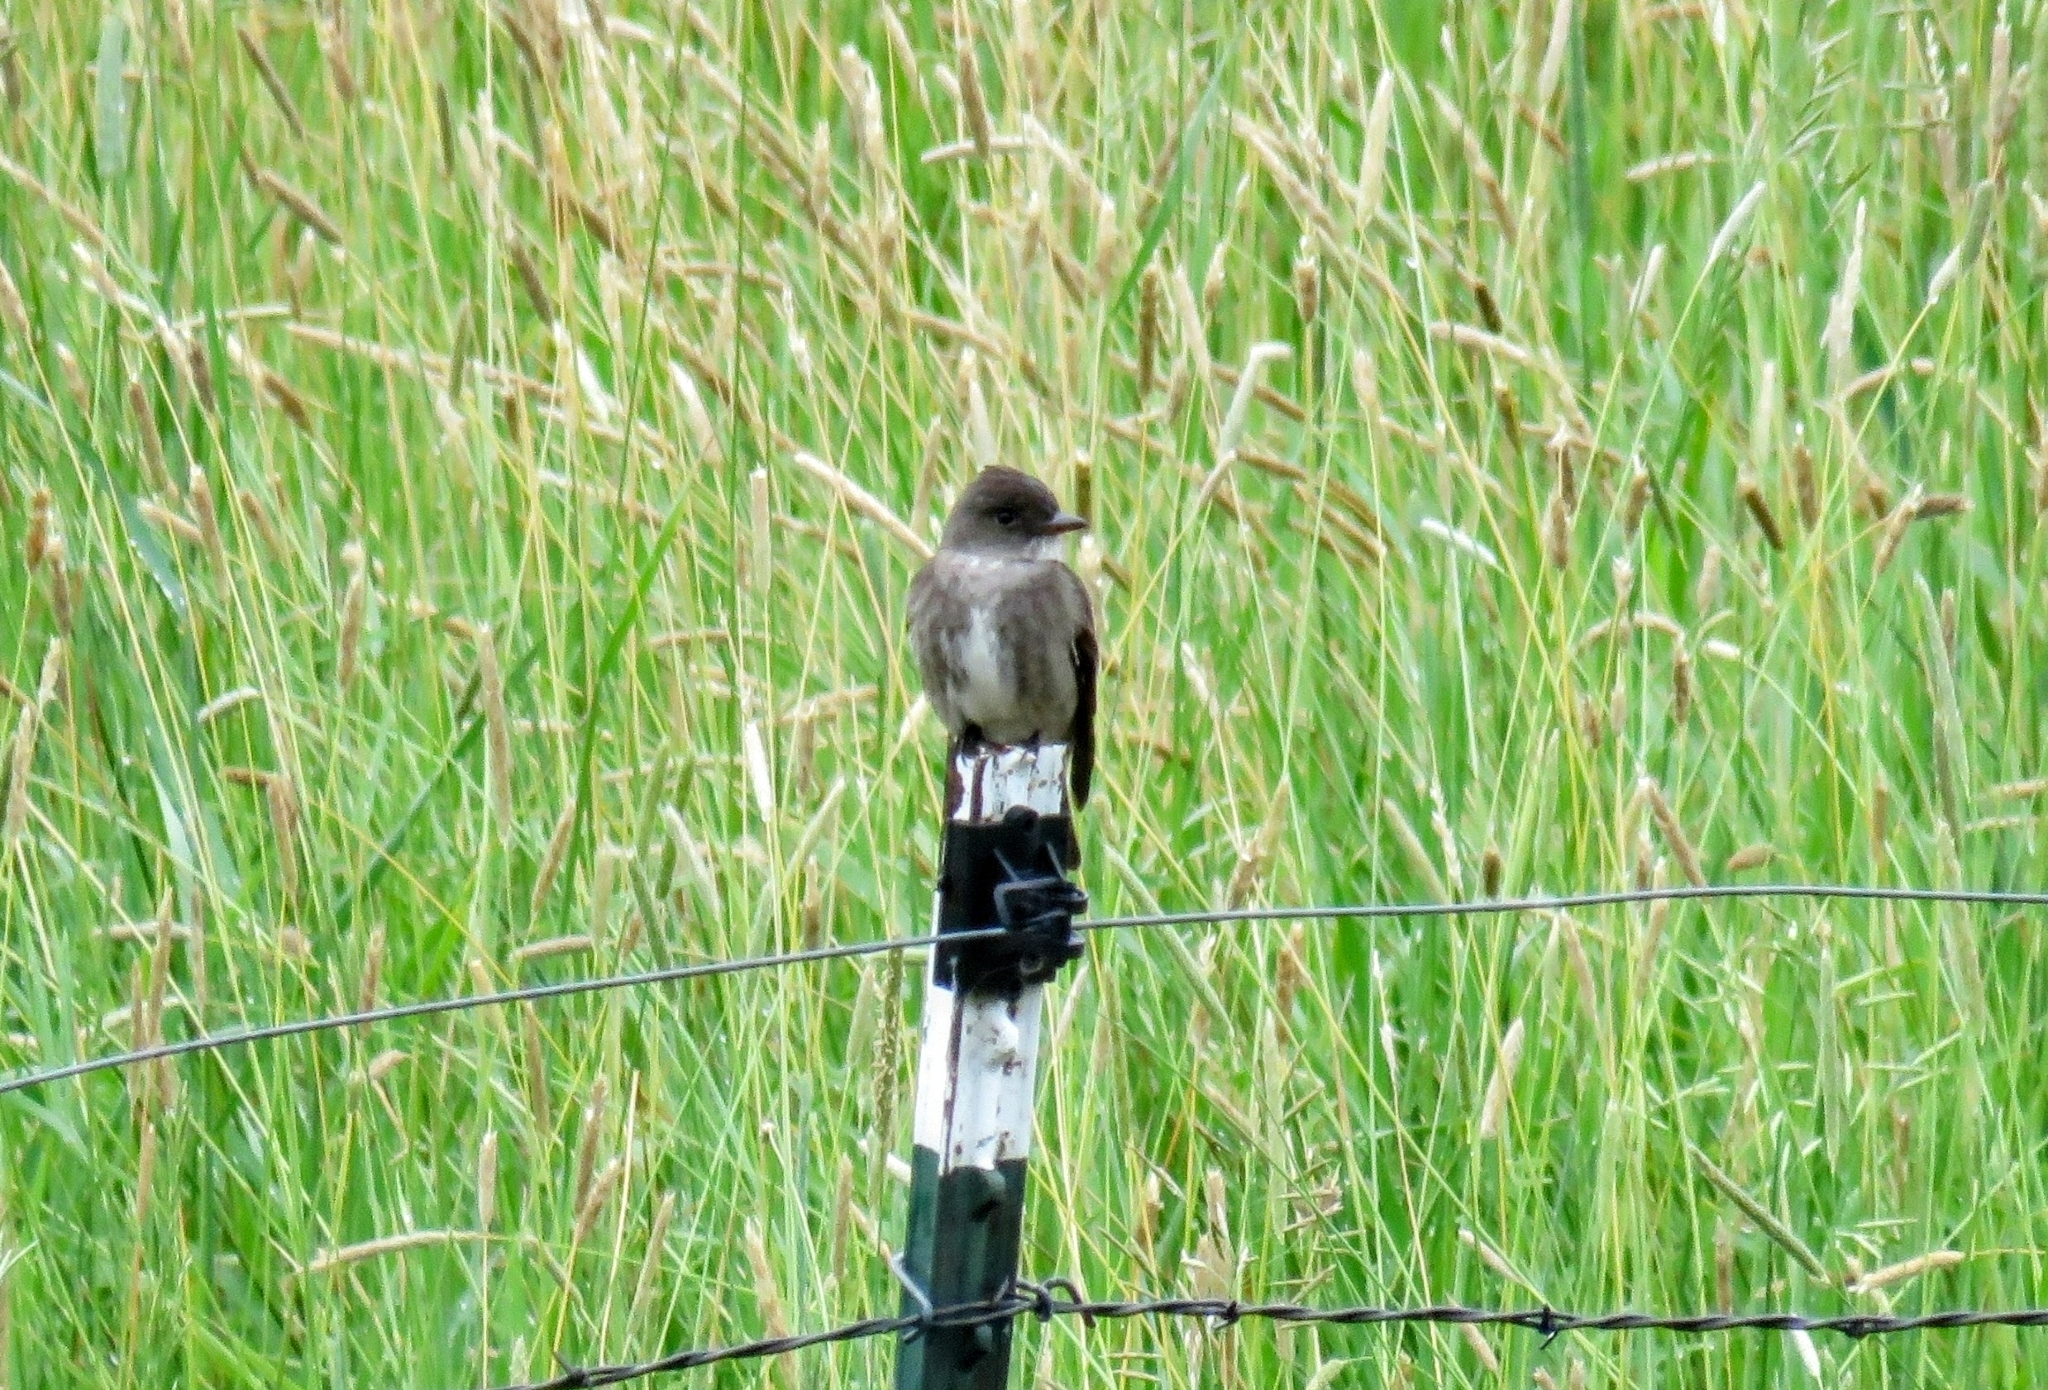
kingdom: Animalia
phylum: Chordata
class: Aves
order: Passeriformes
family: Tyrannidae
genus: Contopus
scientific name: Contopus cooperi
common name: Olive-sided flycatcher
